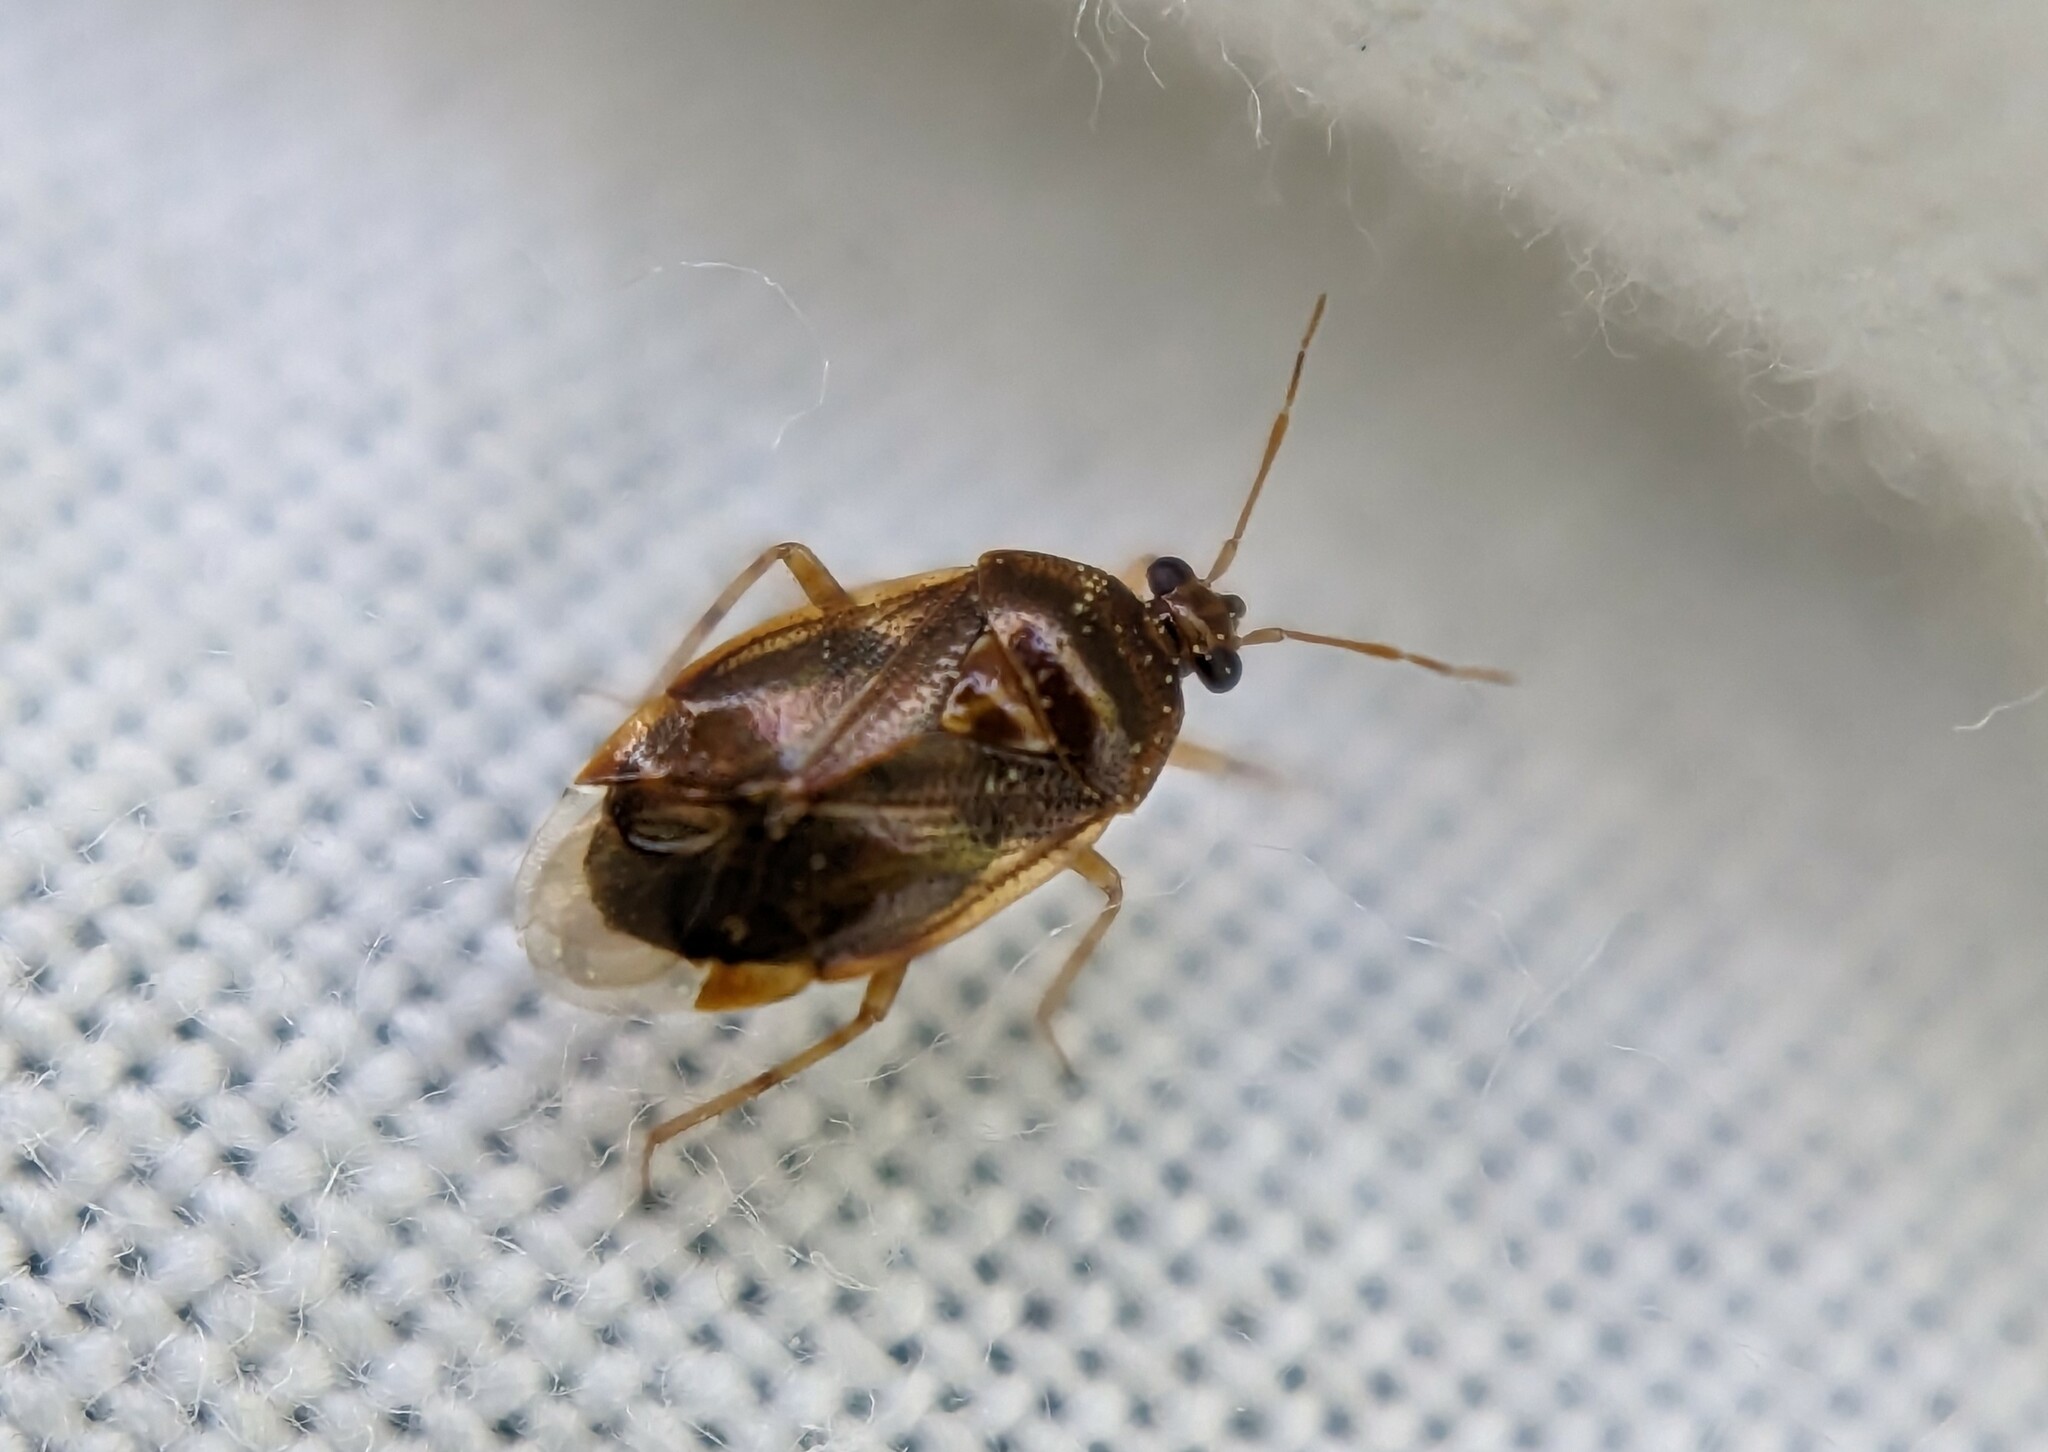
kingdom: Animalia
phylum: Arthropoda
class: Insecta
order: Hemiptera
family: Miridae
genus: Deraeocoris
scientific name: Deraeocoris lutescens
